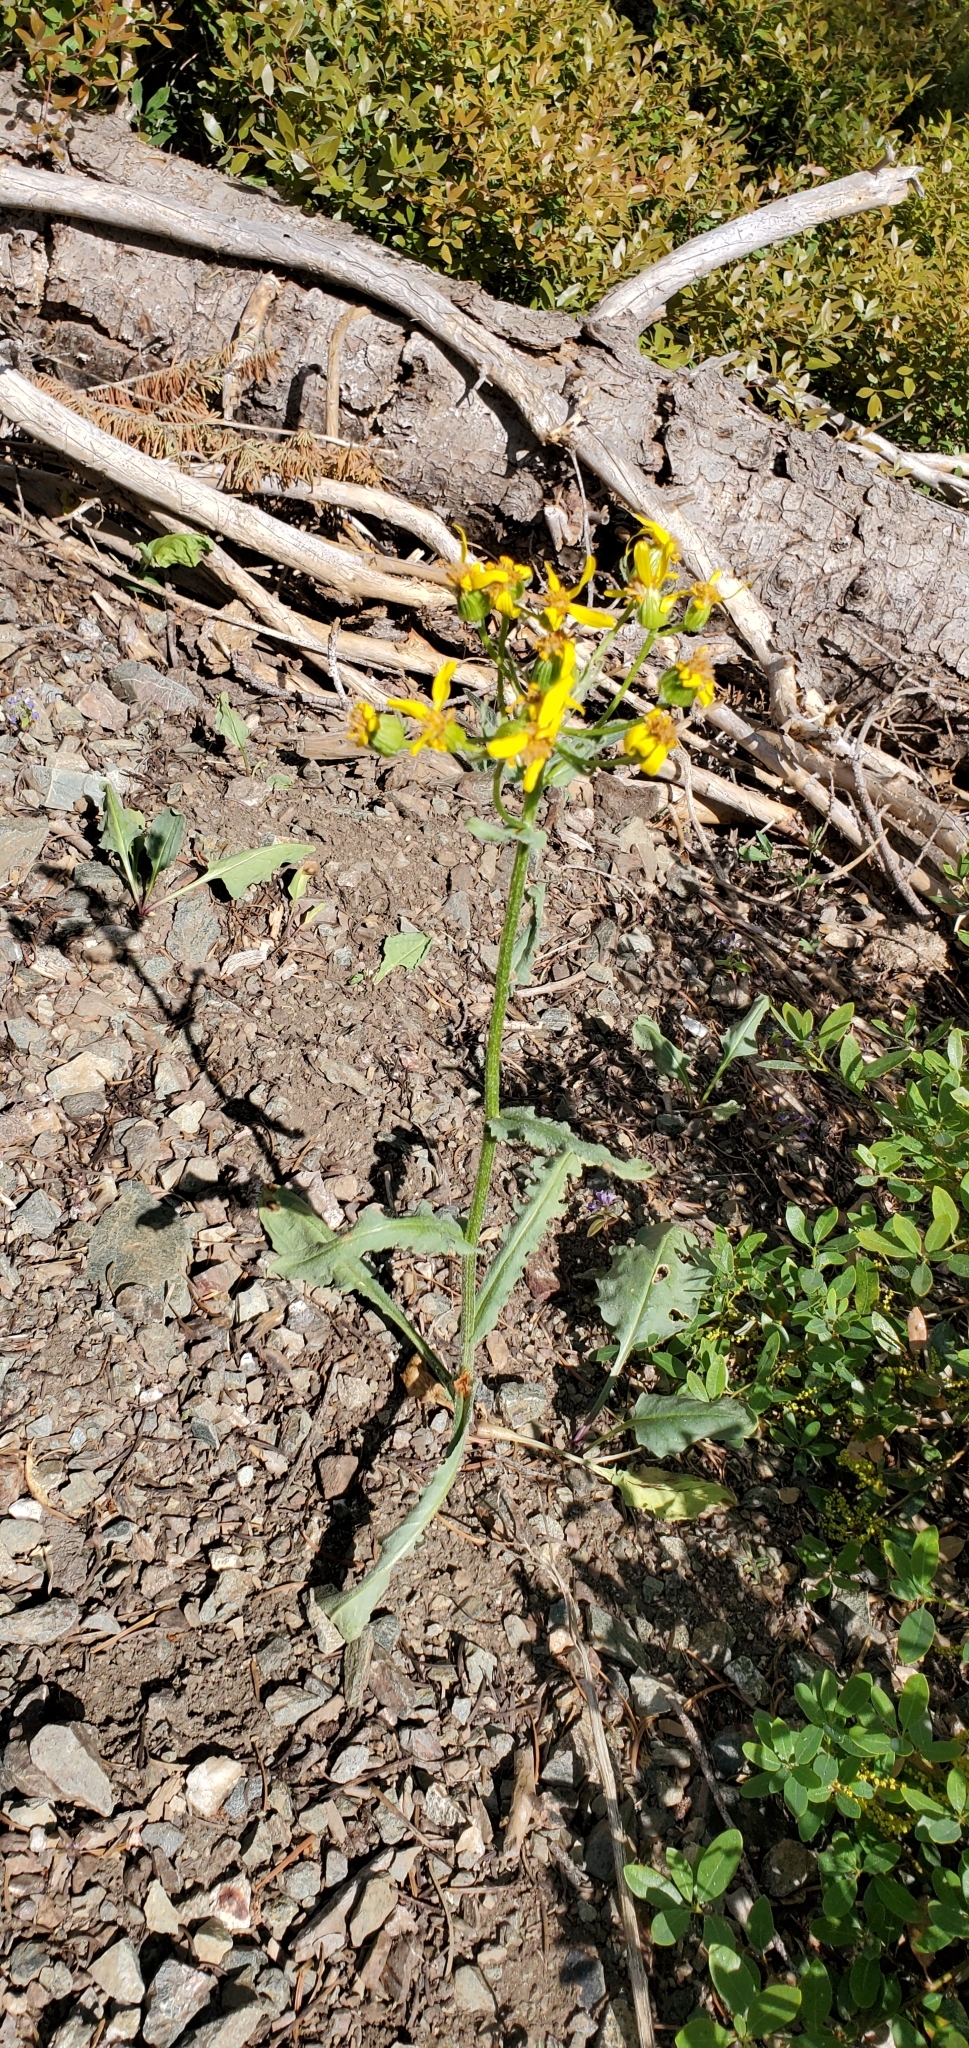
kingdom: Plantae
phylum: Tracheophyta
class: Magnoliopsida
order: Asterales
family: Asteraceae
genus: Senecio
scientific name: Senecio integerrimus
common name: Gaugeplant
